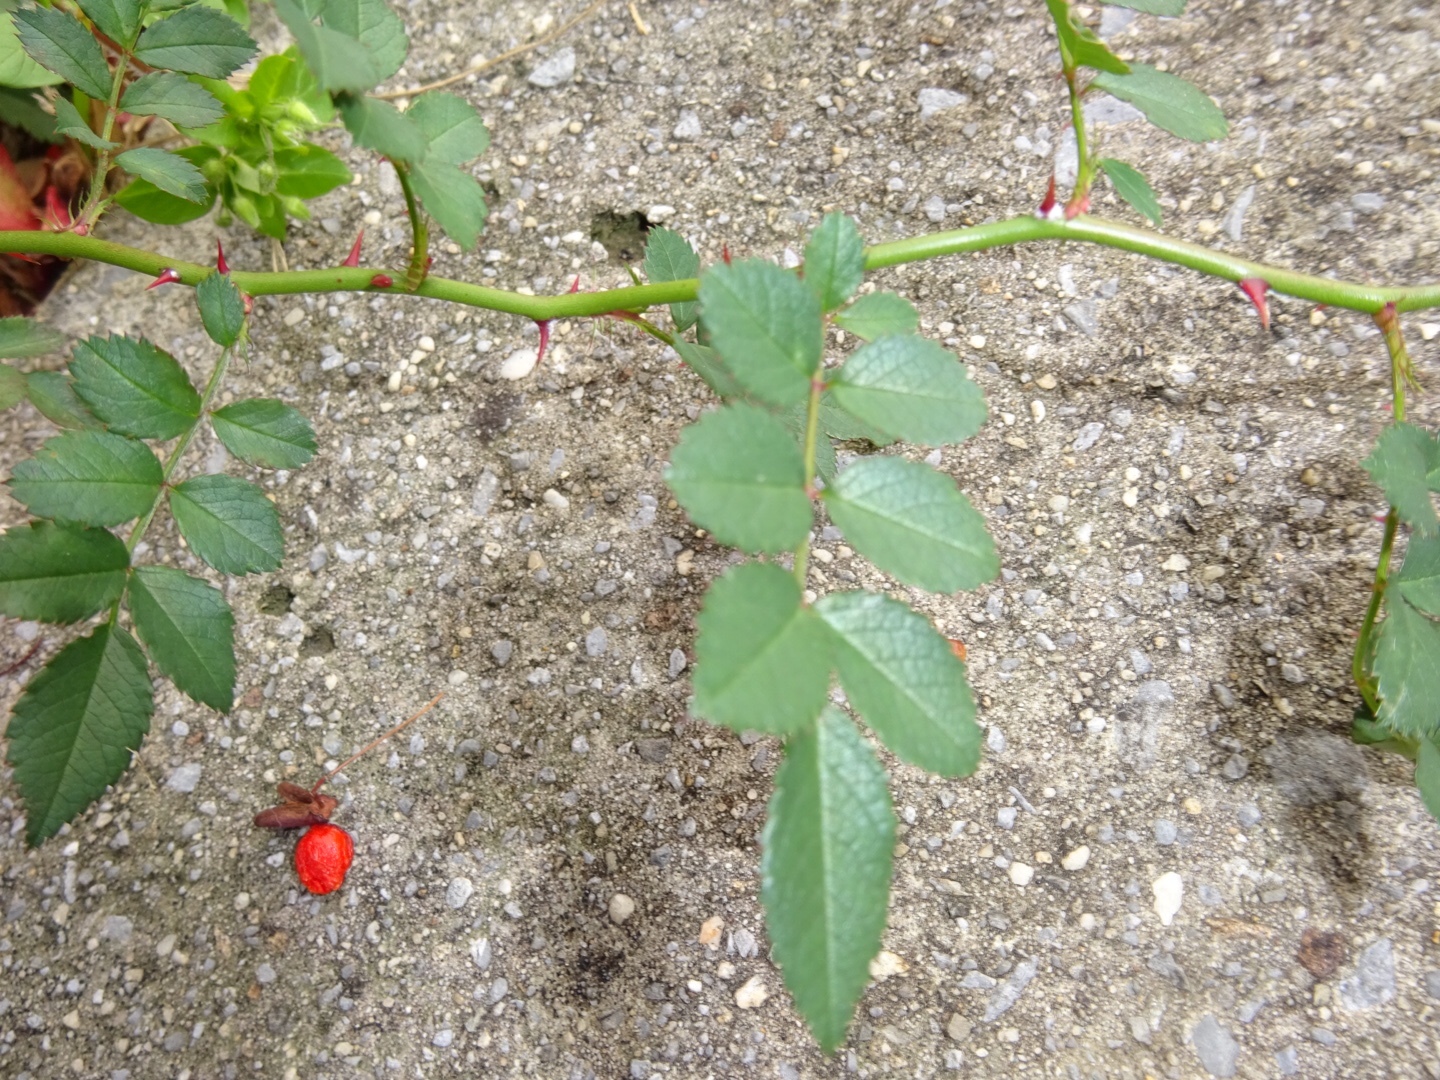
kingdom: Plantae
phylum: Tracheophyta
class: Magnoliopsida
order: Rosales
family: Rosaceae
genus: Rosa
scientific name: Rosa multiflora
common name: Multiflora rose
